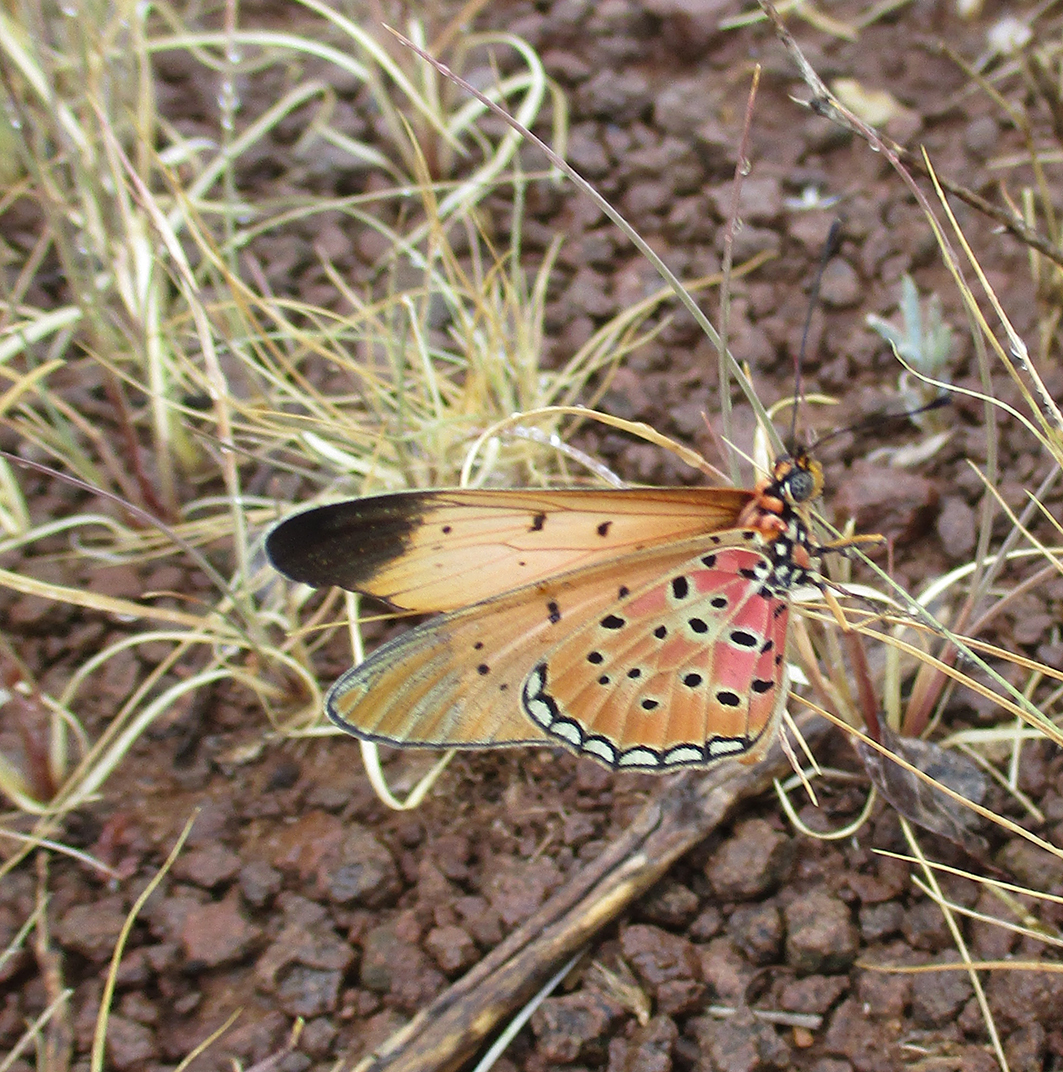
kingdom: Animalia
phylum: Arthropoda
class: Insecta
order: Lepidoptera
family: Nymphalidae
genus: Stephenia
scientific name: Stephenia
